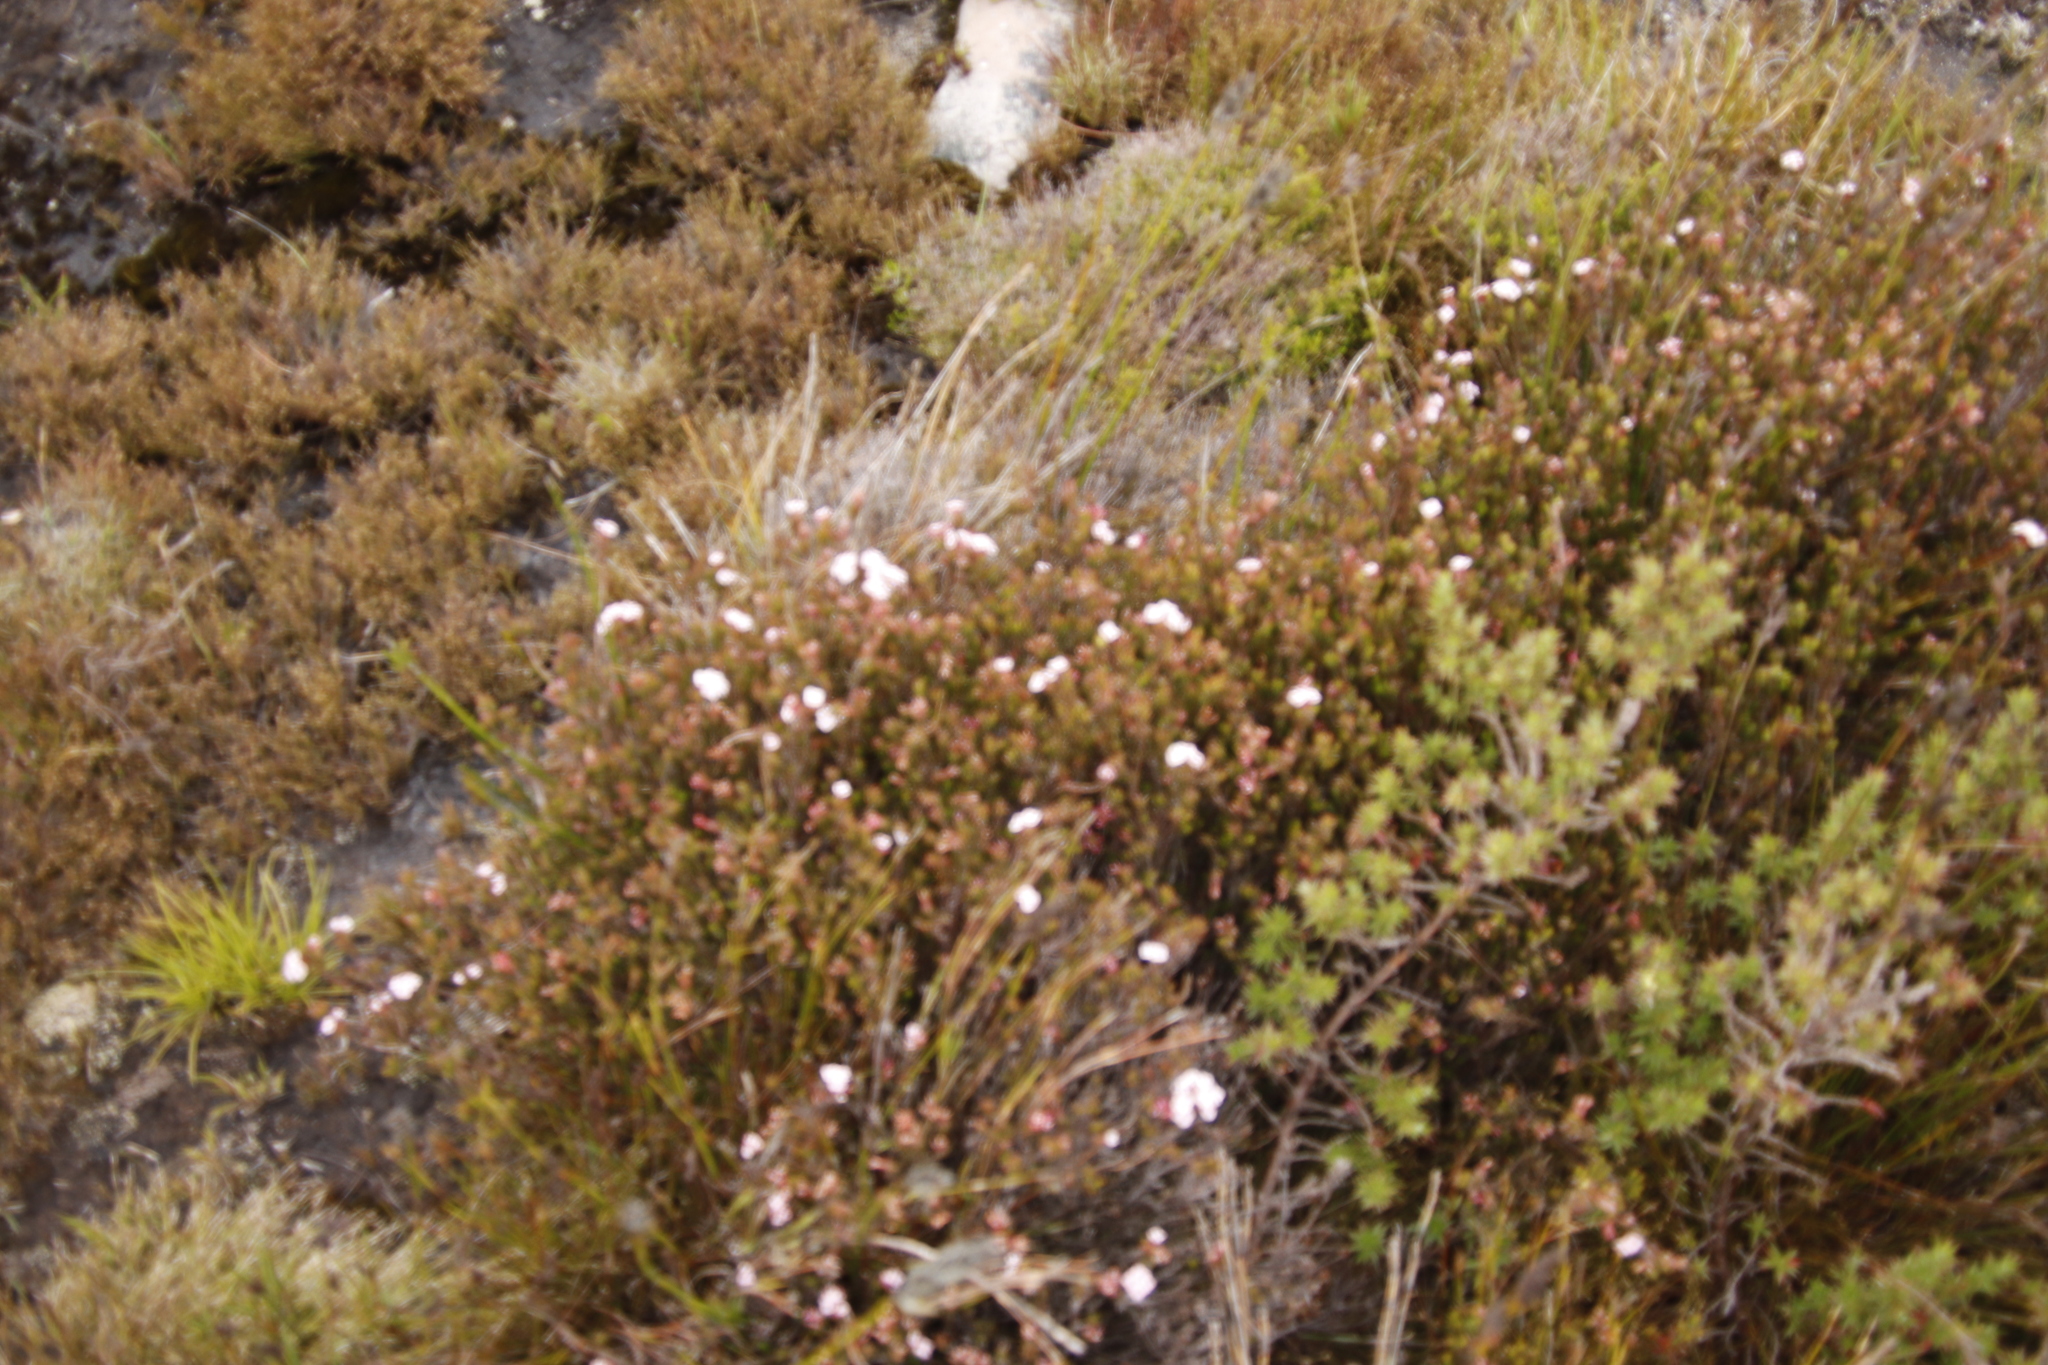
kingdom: Plantae
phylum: Tracheophyta
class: Magnoliopsida
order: Ericales
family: Ericaceae
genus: Erica
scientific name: Erica fastigiata
